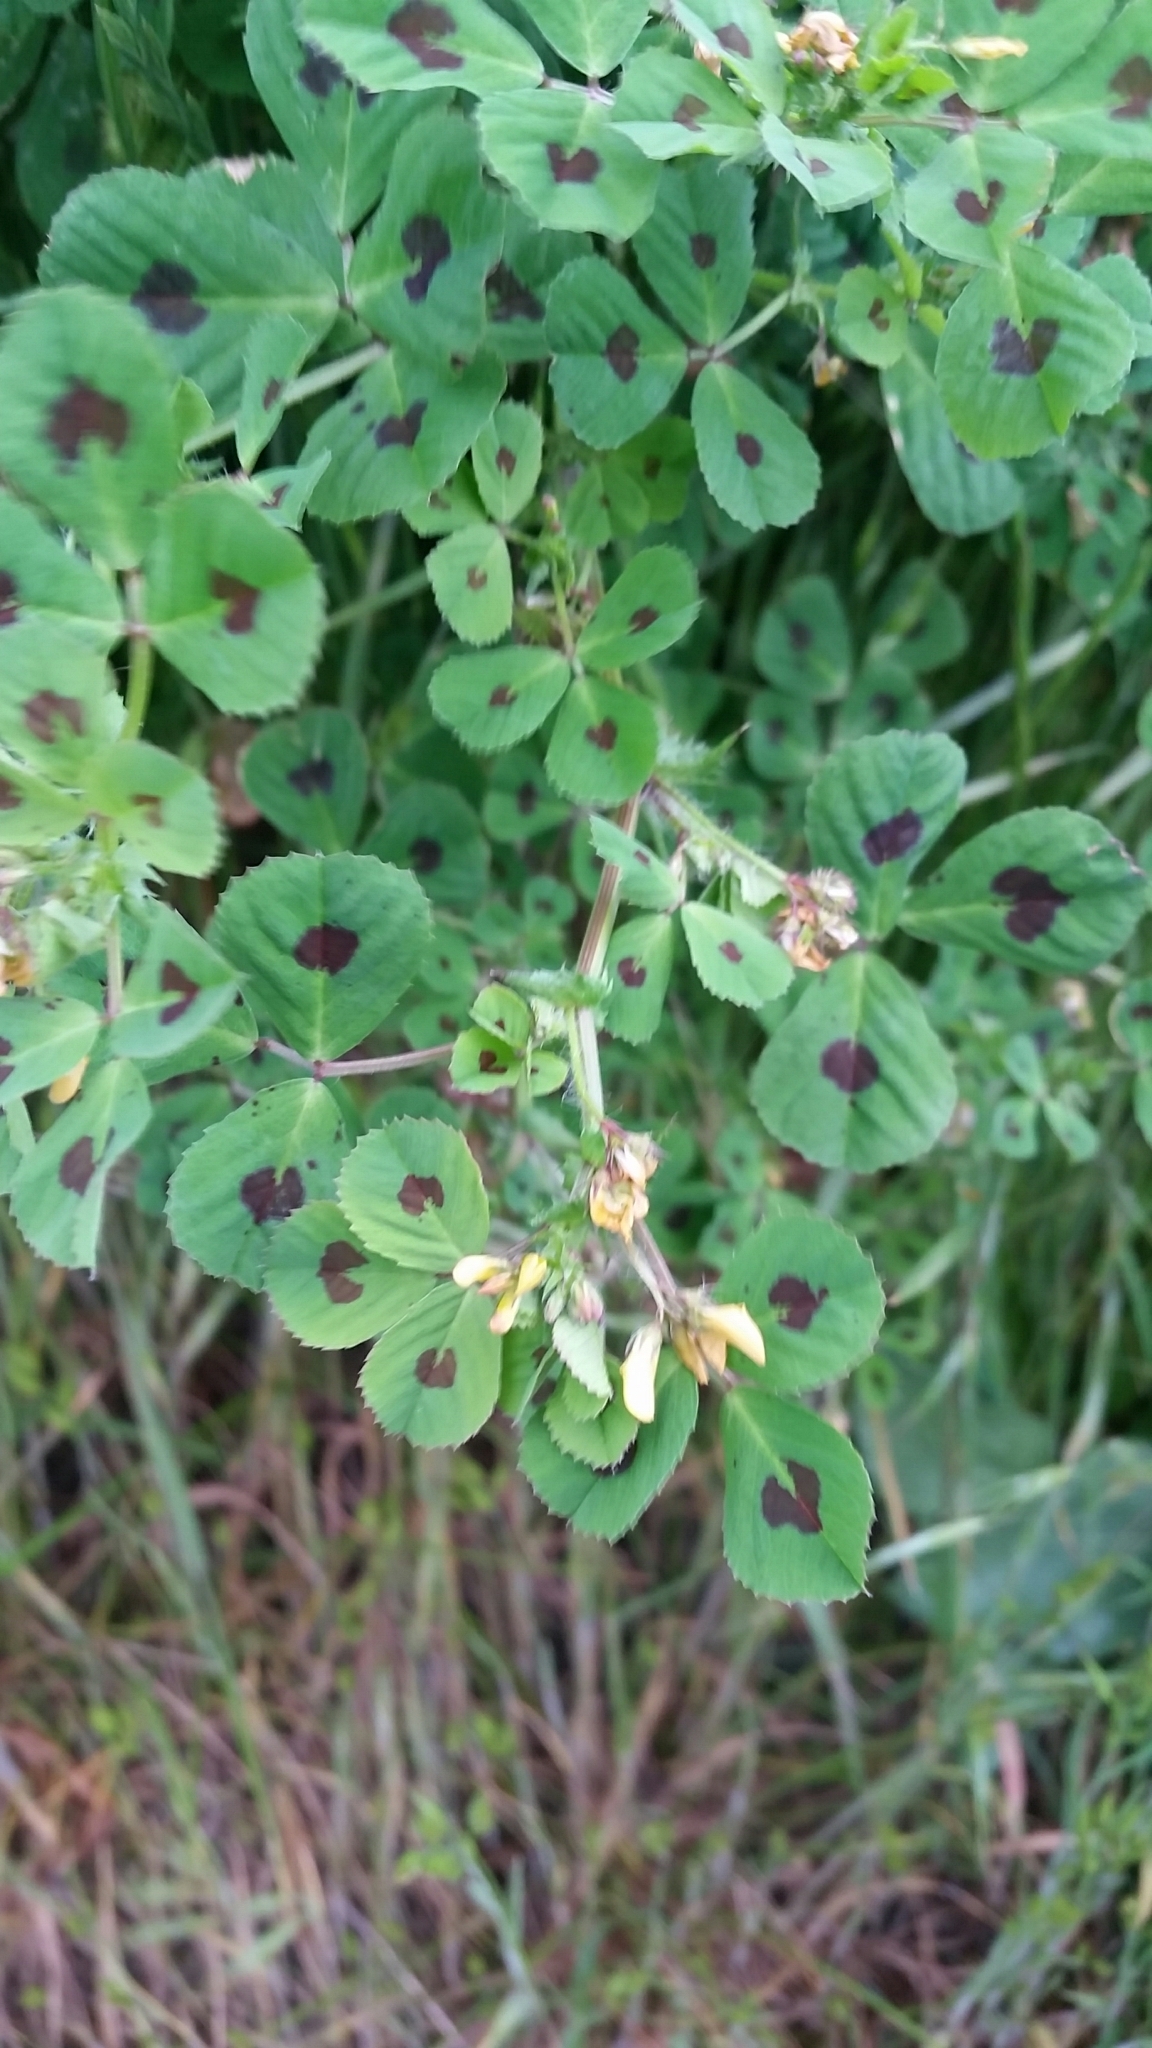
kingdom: Plantae
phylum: Tracheophyta
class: Magnoliopsida
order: Fabales
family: Fabaceae
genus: Medicago
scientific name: Medicago arabica
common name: Spotted medick
